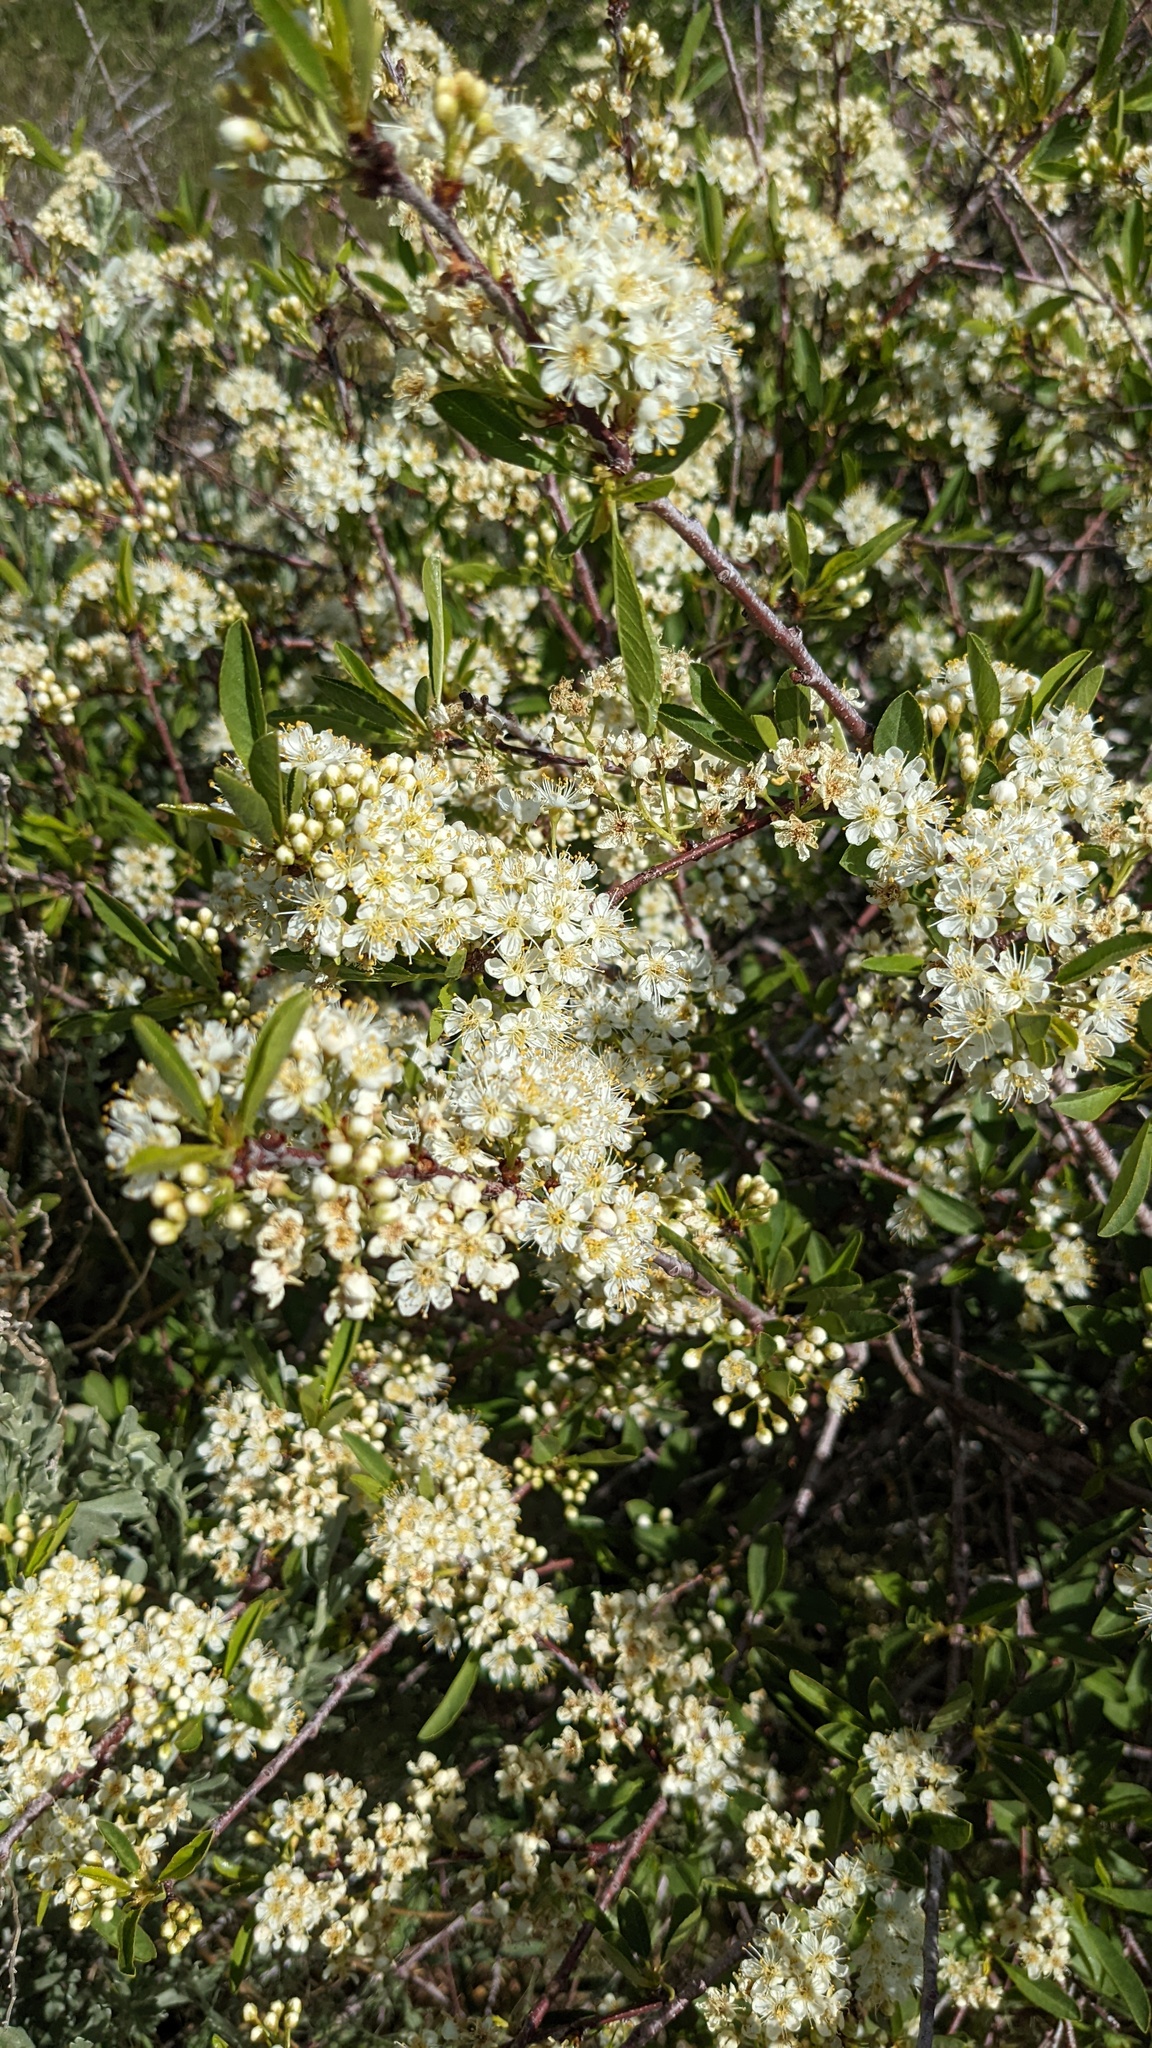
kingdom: Plantae
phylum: Tracheophyta
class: Magnoliopsida
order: Rosales
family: Rosaceae
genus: Prunus
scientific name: Prunus emarginata
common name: Bitter cherry
